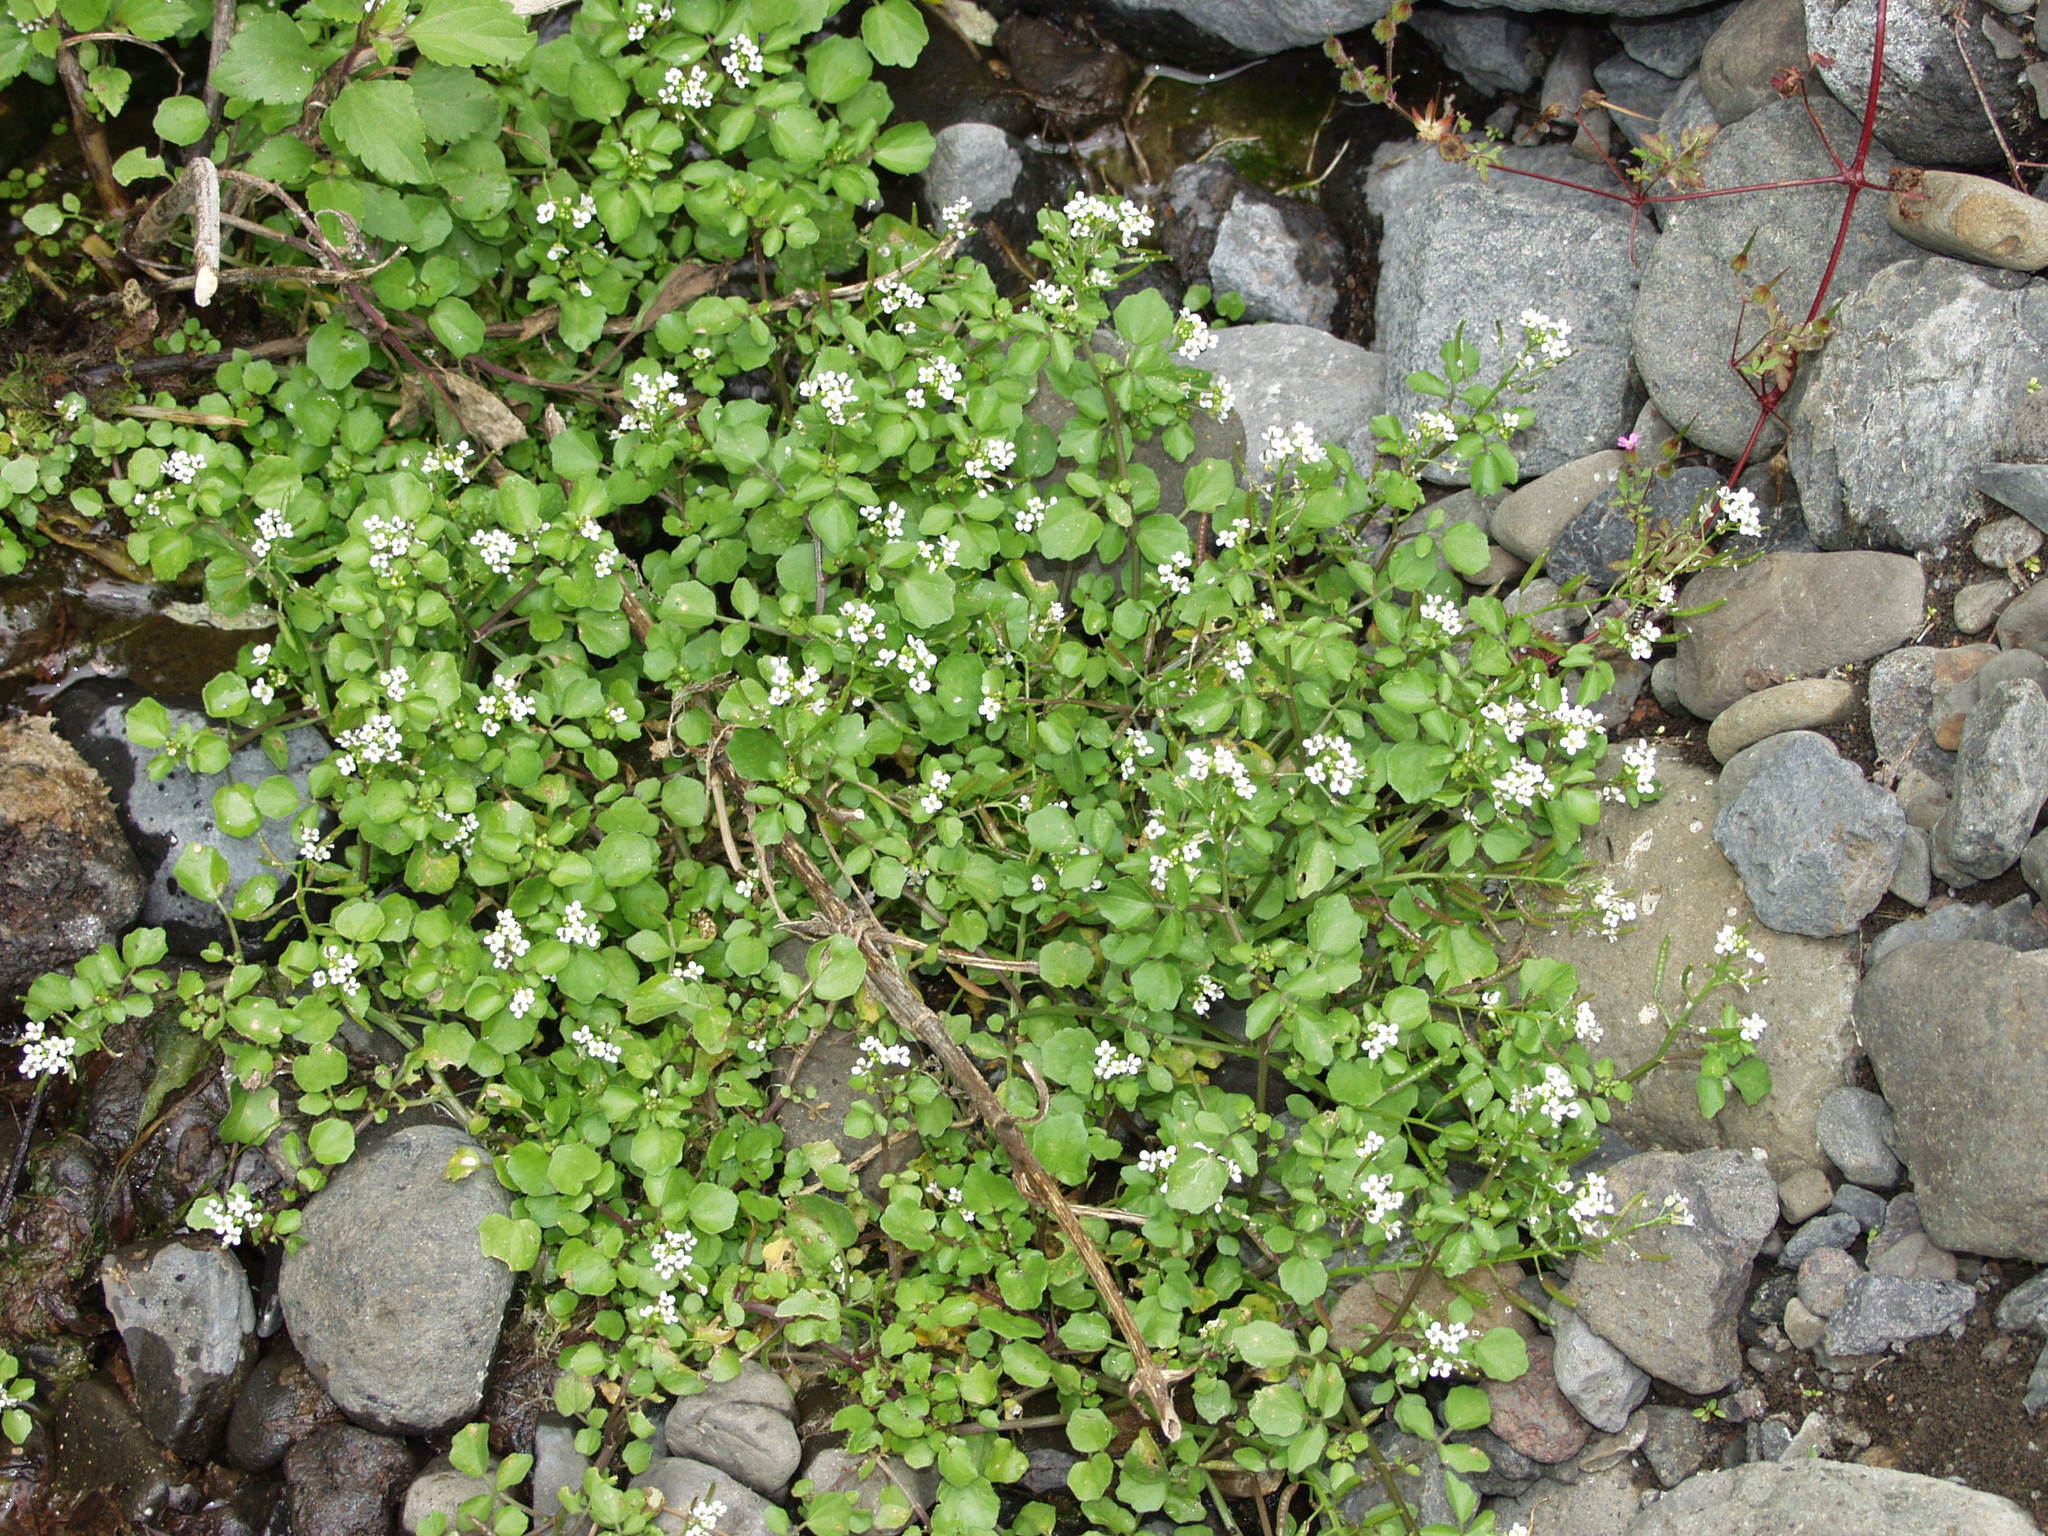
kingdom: Plantae
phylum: Tracheophyta
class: Magnoliopsida
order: Brassicales
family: Brassicaceae
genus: Nasturtium
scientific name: Nasturtium officinale
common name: Watercress
